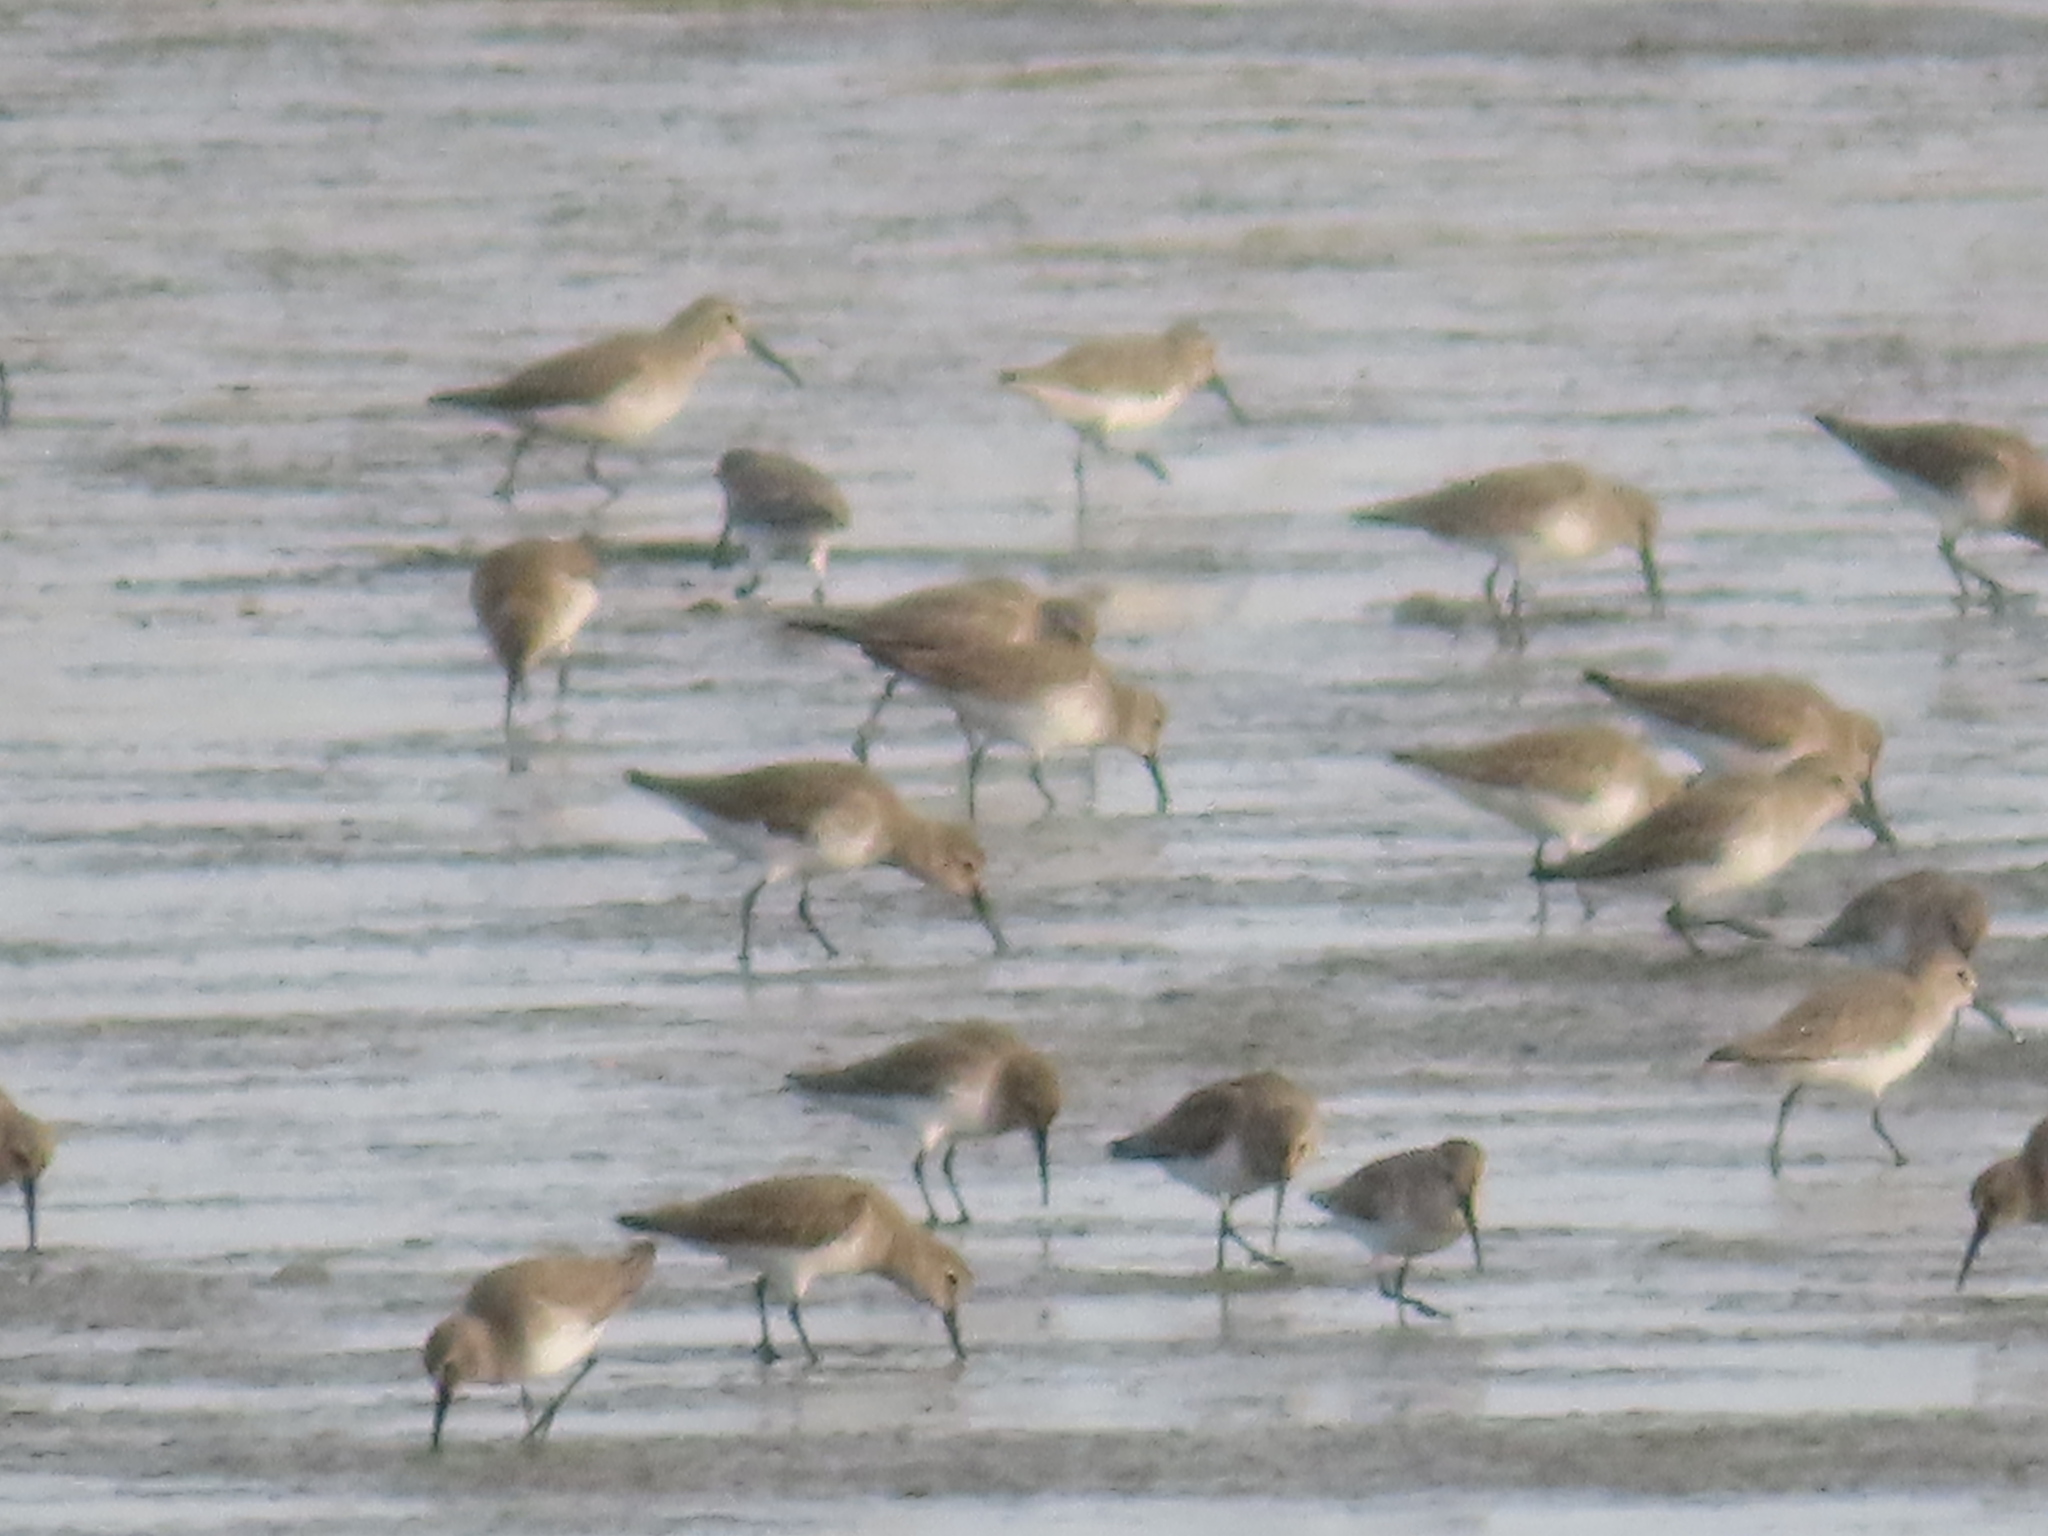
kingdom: Animalia
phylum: Chordata
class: Aves
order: Charadriiformes
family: Scolopacidae
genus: Calidris
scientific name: Calidris alpina
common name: Dunlin
